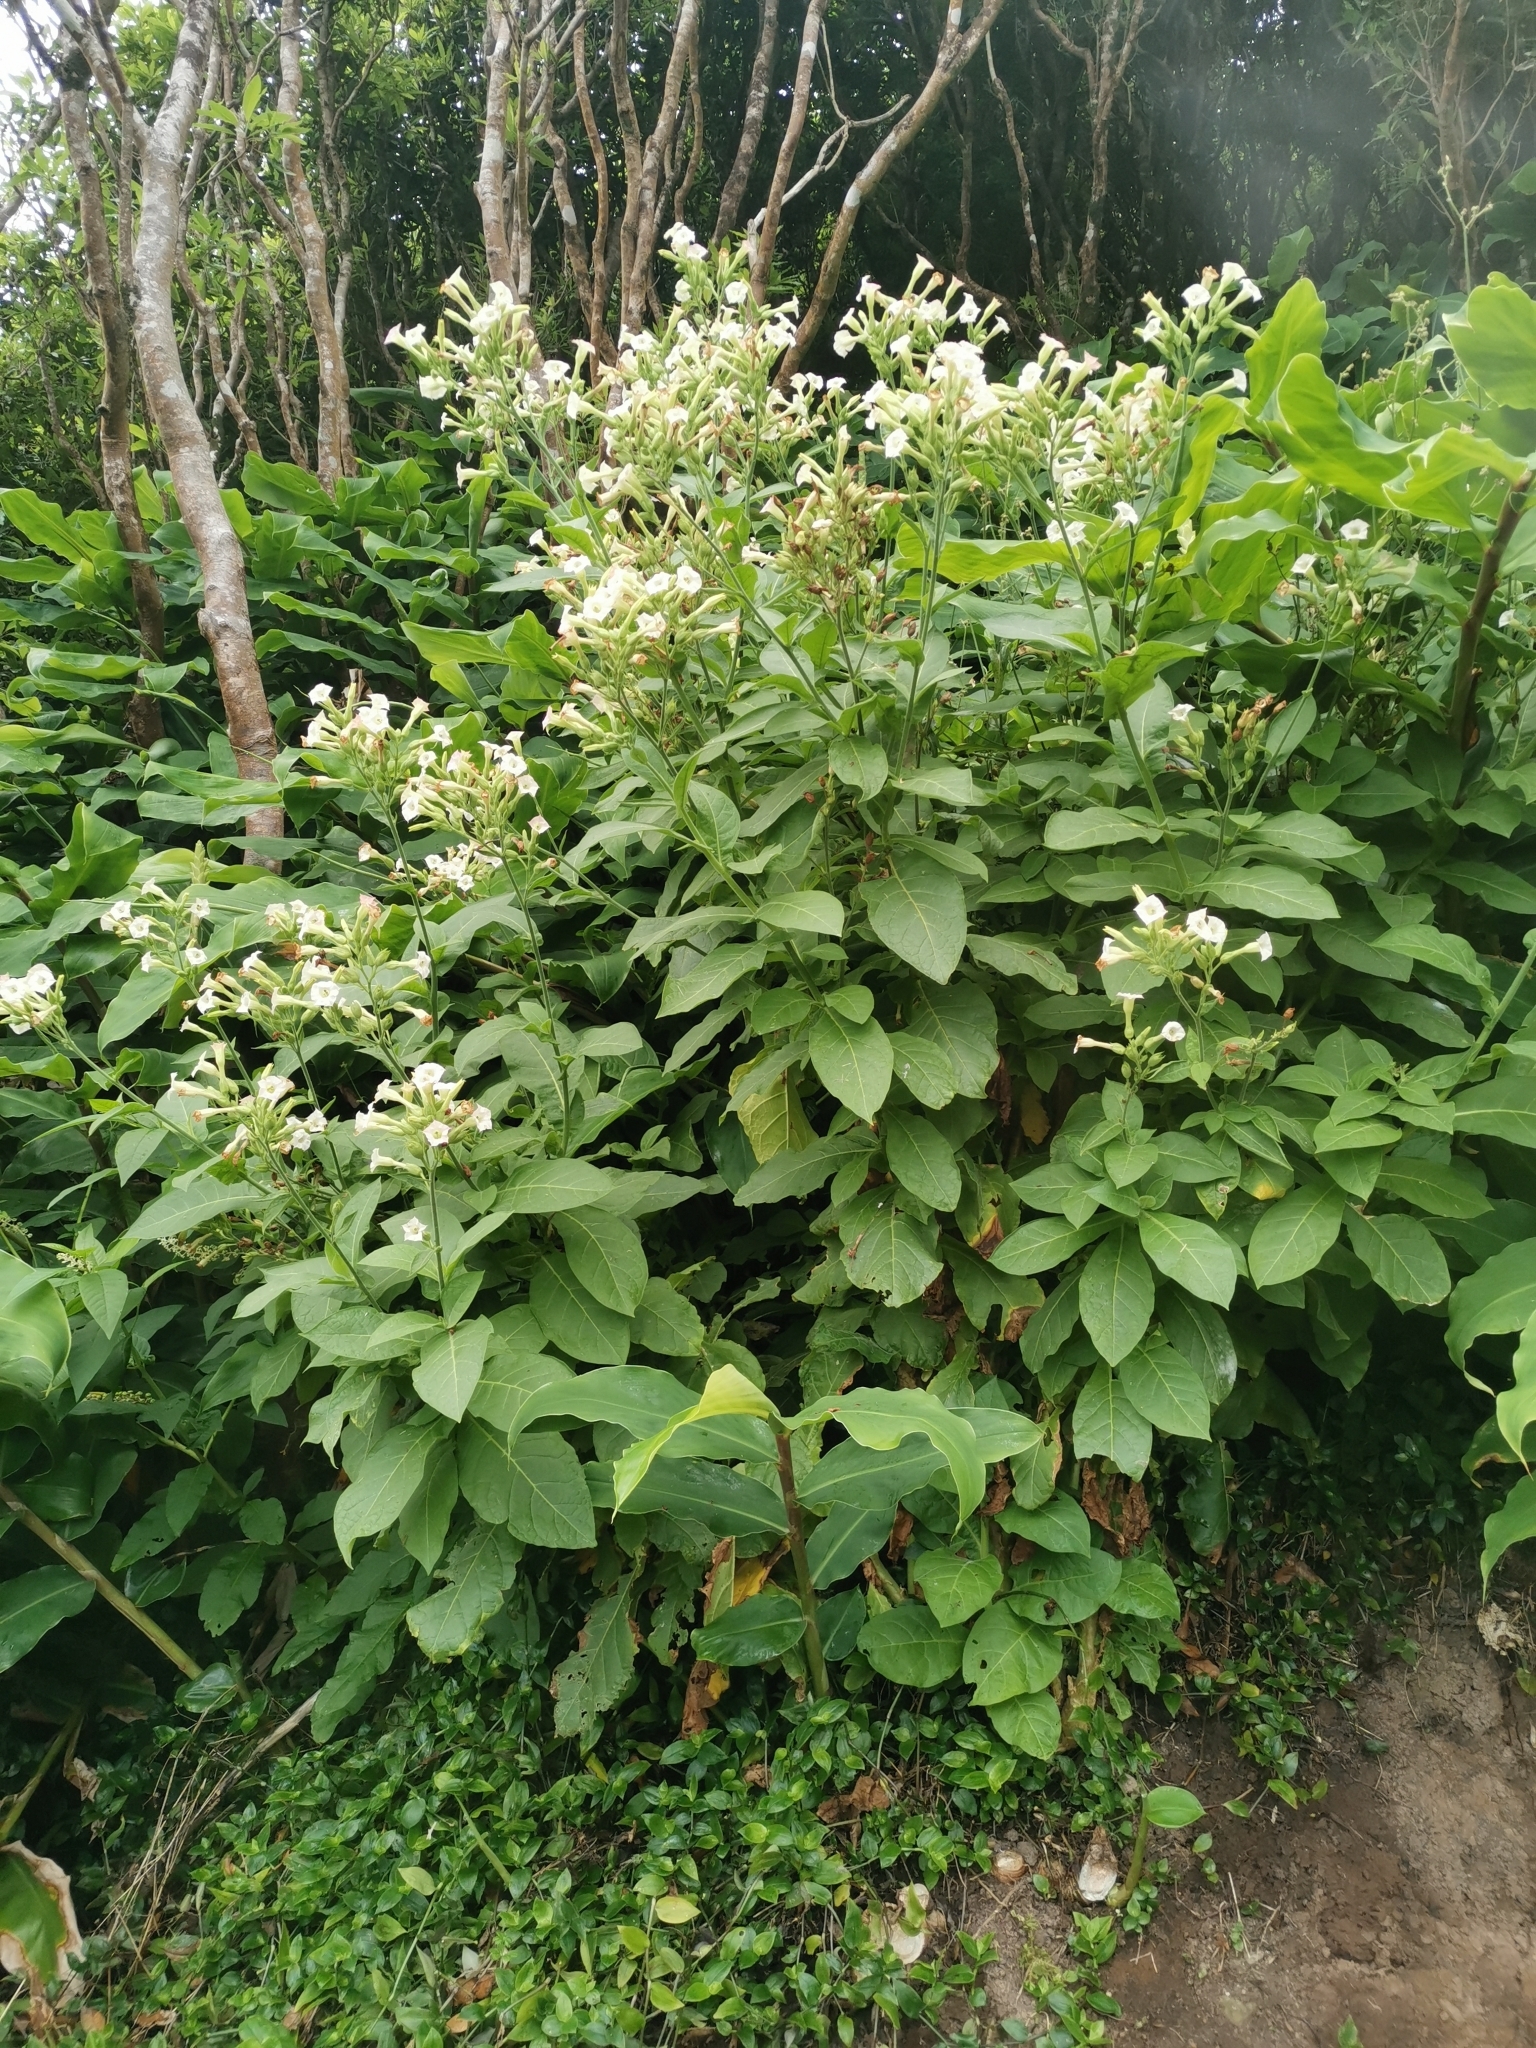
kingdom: Plantae
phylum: Tracheophyta
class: Magnoliopsida
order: Solanales
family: Solanaceae
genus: Nicotiana
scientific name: Nicotiana tabacum
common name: Tobacco
